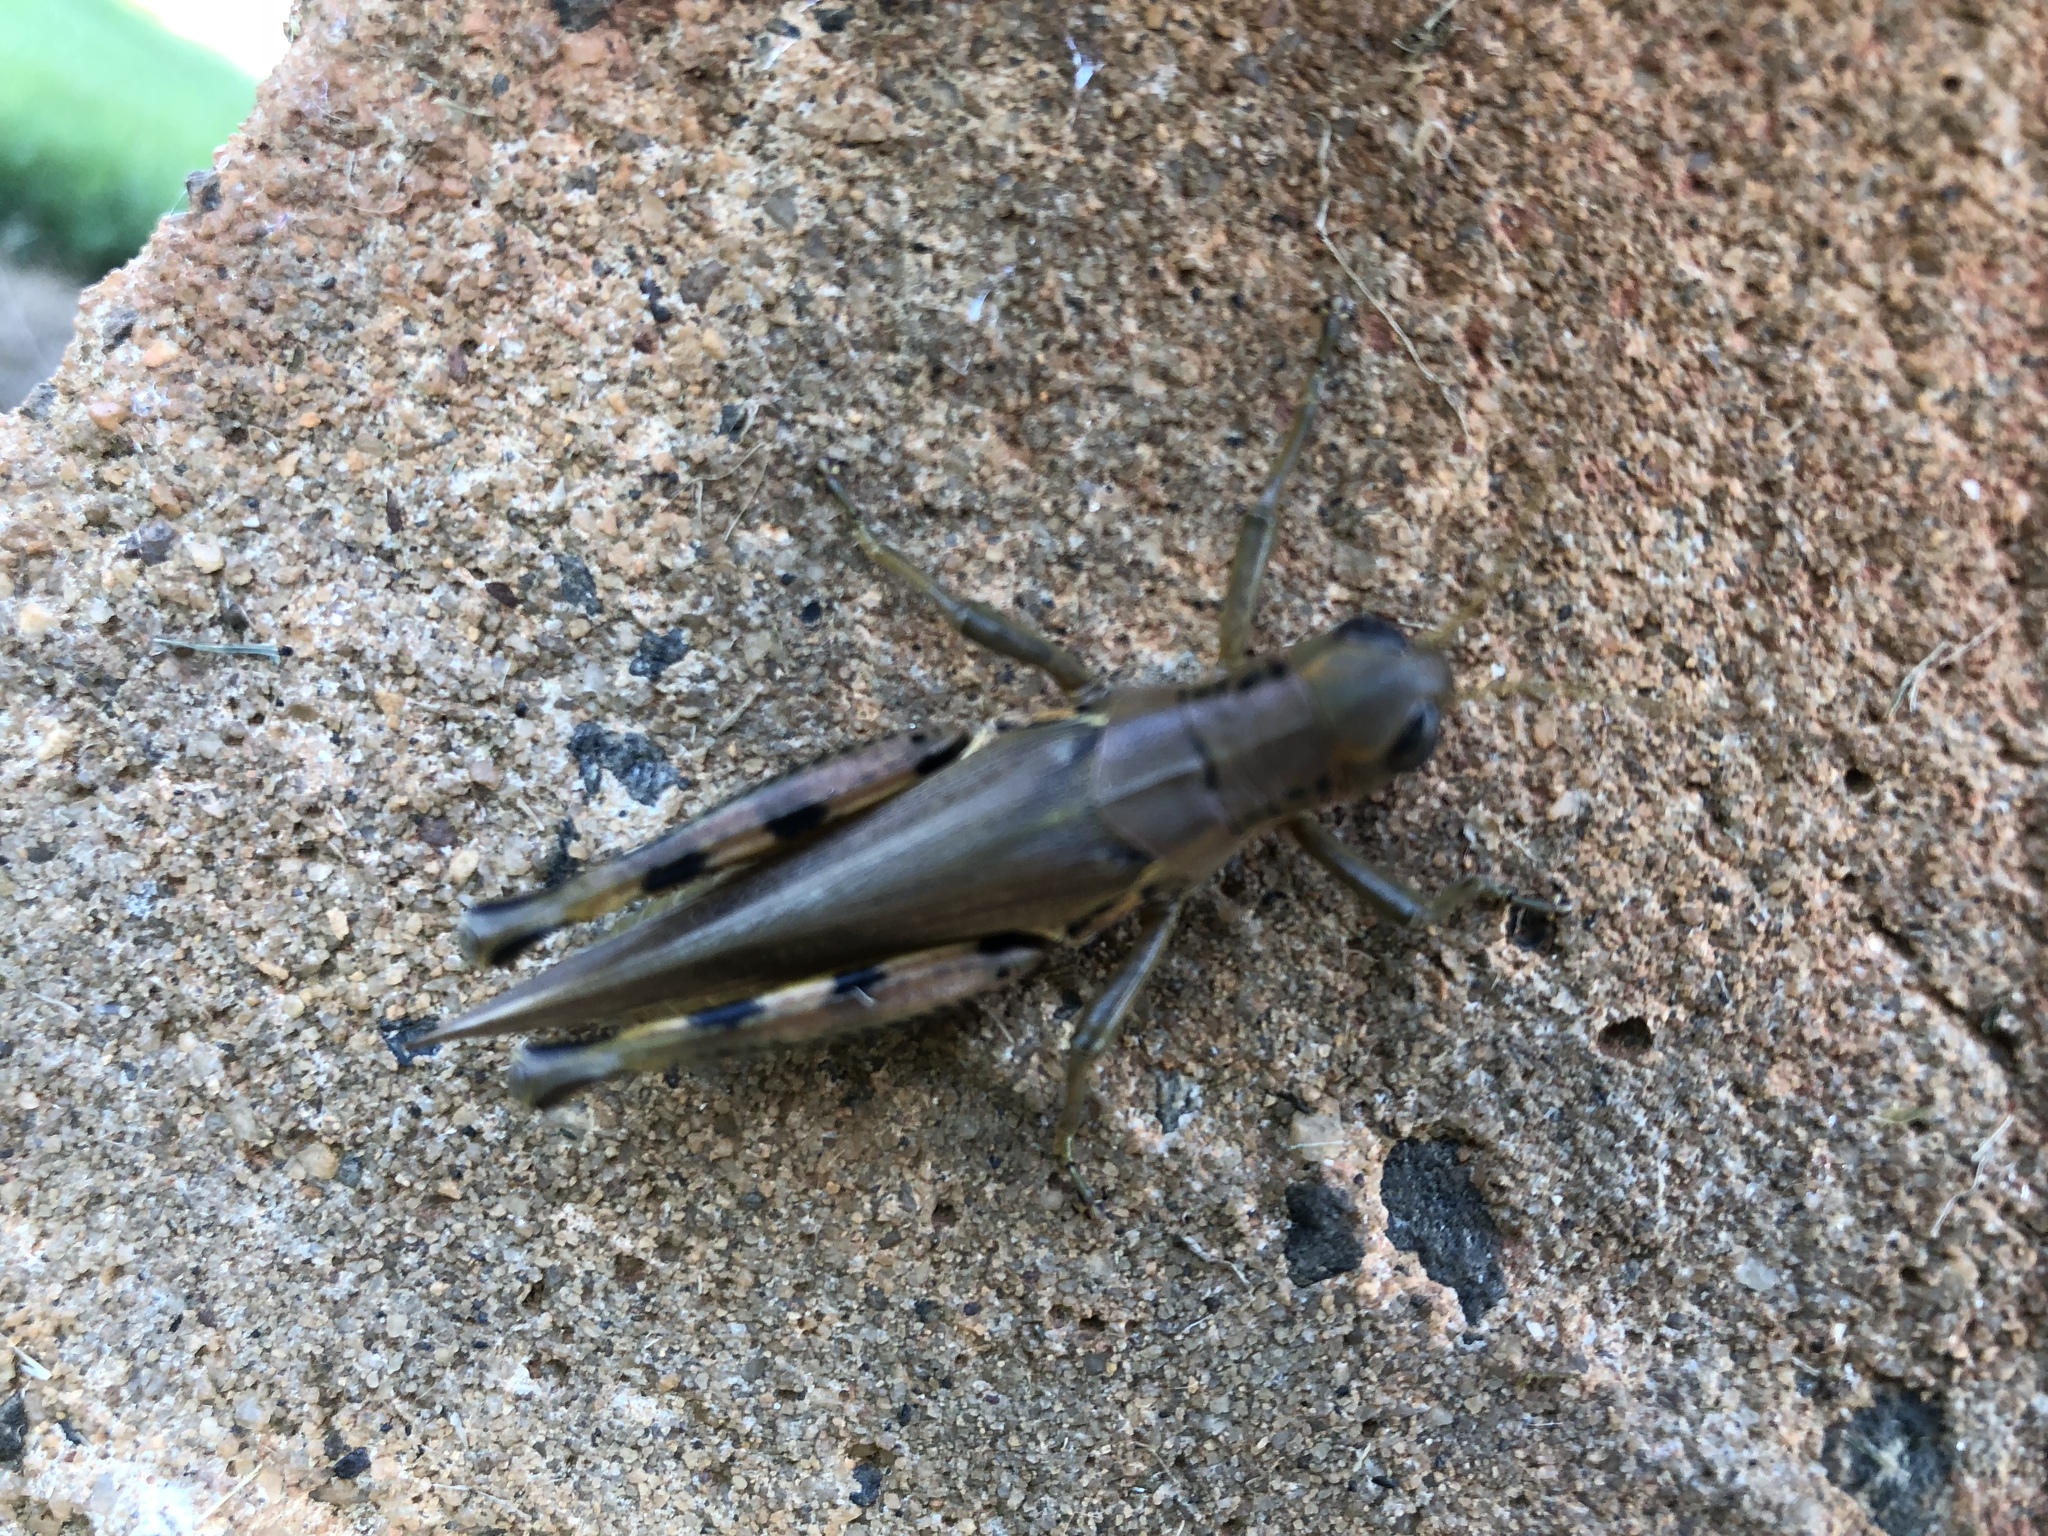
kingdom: Animalia
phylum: Arthropoda
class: Insecta
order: Orthoptera
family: Acrididae
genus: Melanoplus
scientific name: Melanoplus differentialis
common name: Differential grasshopper
